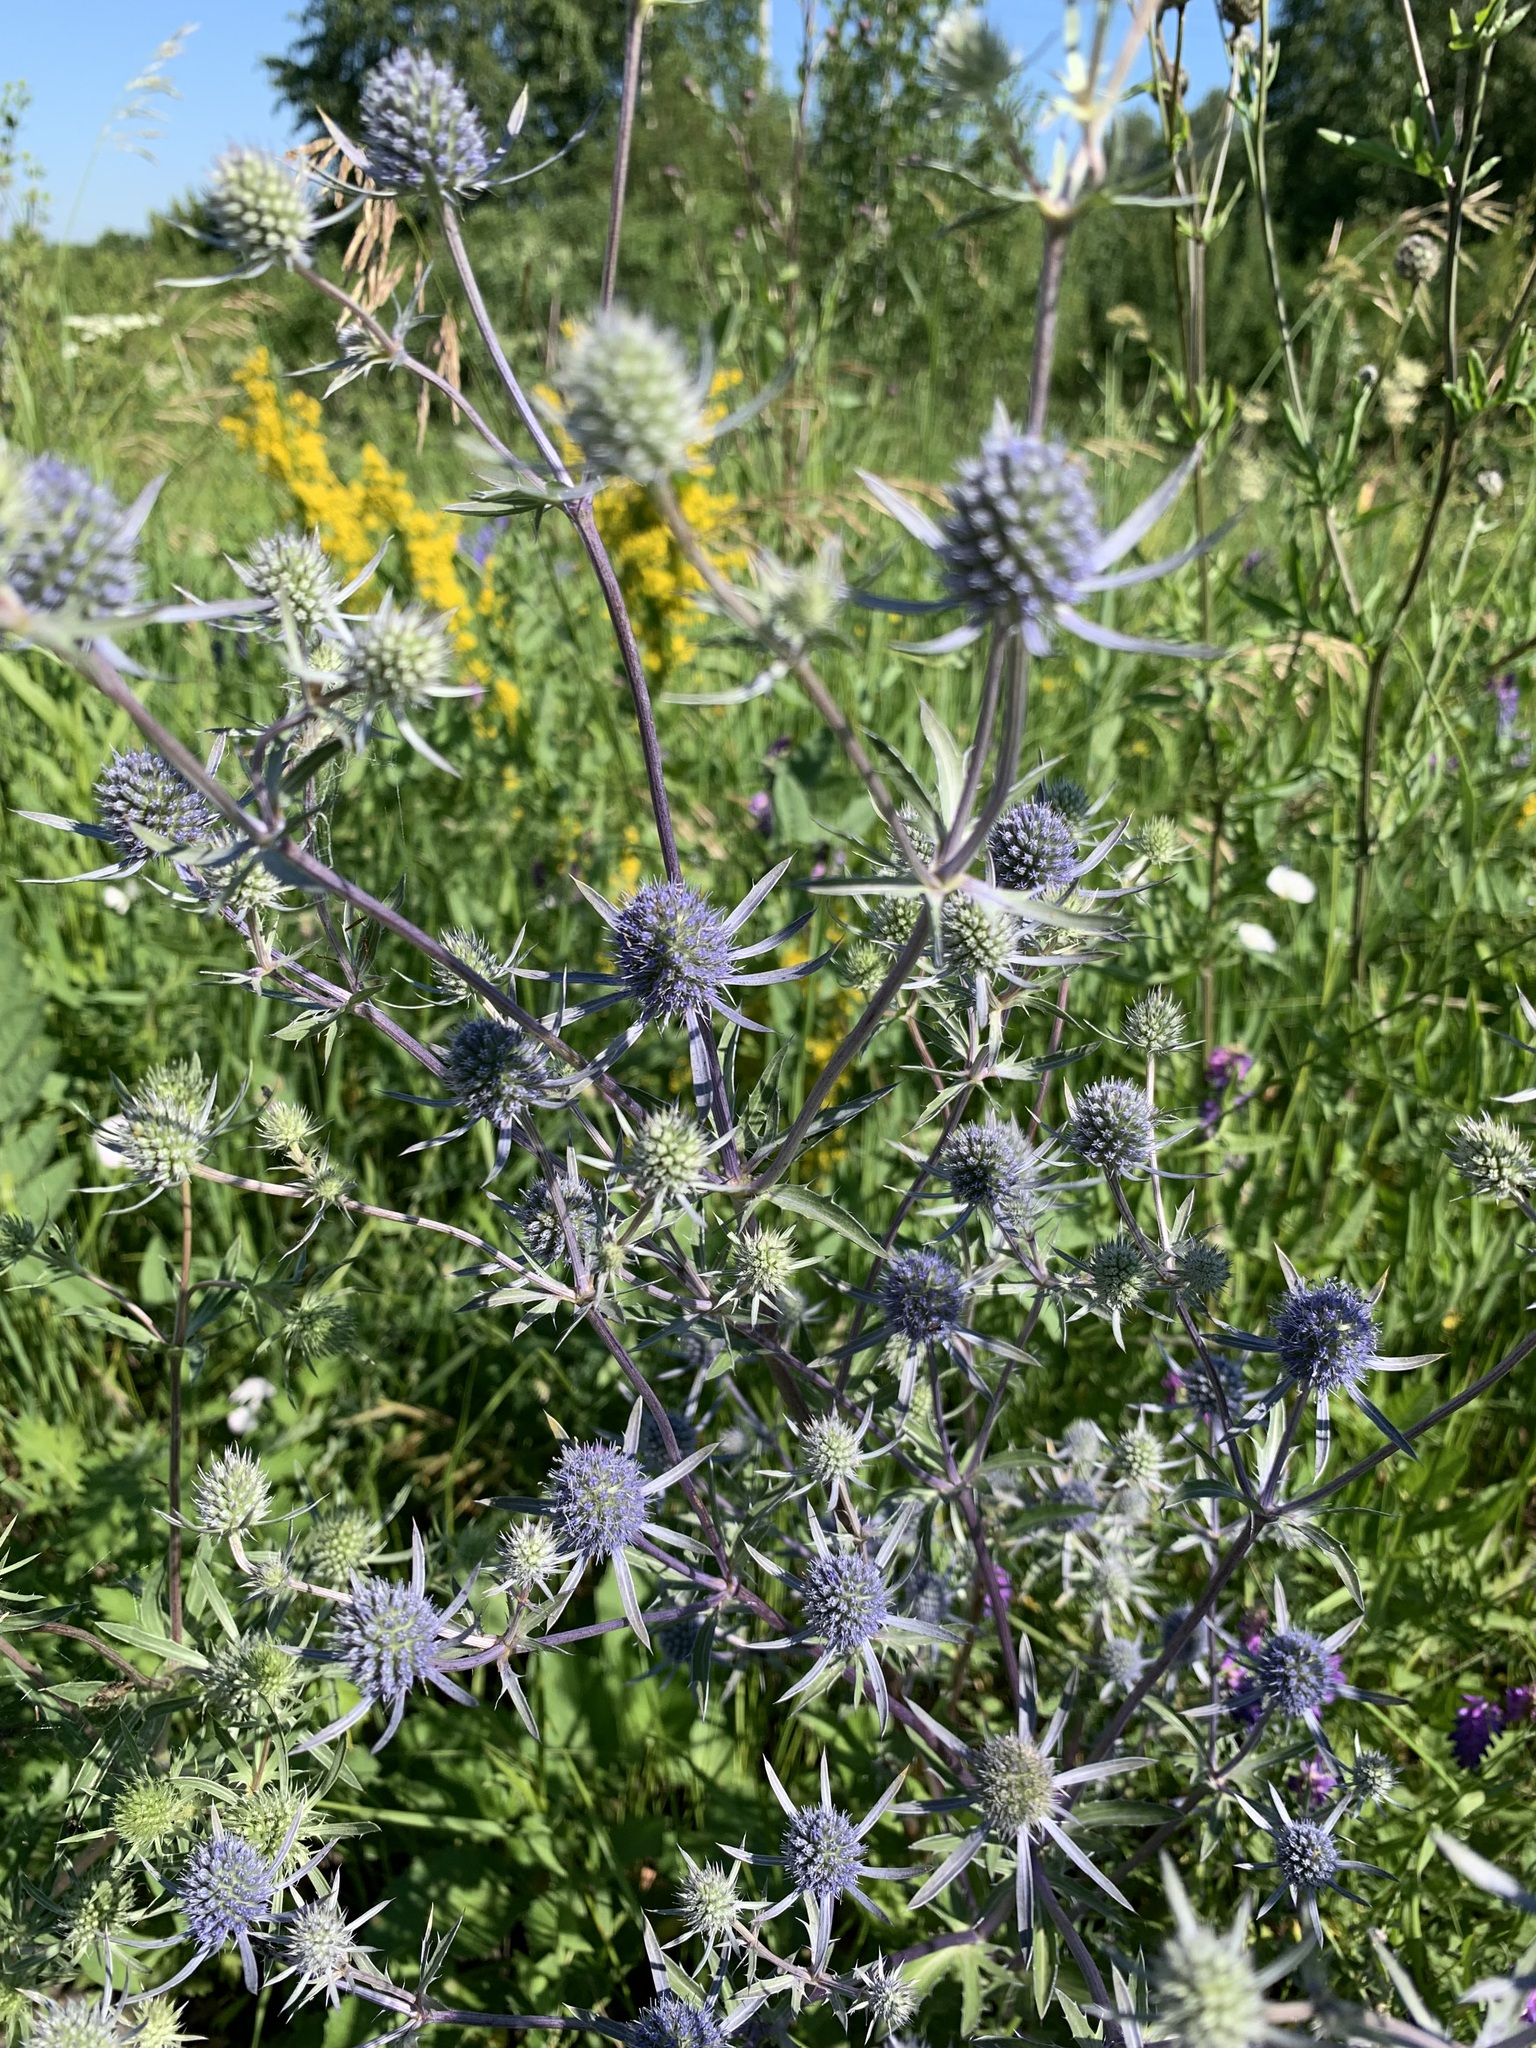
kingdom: Plantae
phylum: Tracheophyta
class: Magnoliopsida
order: Apiales
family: Apiaceae
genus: Eryngium
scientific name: Eryngium planum
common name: Blue eryngo
